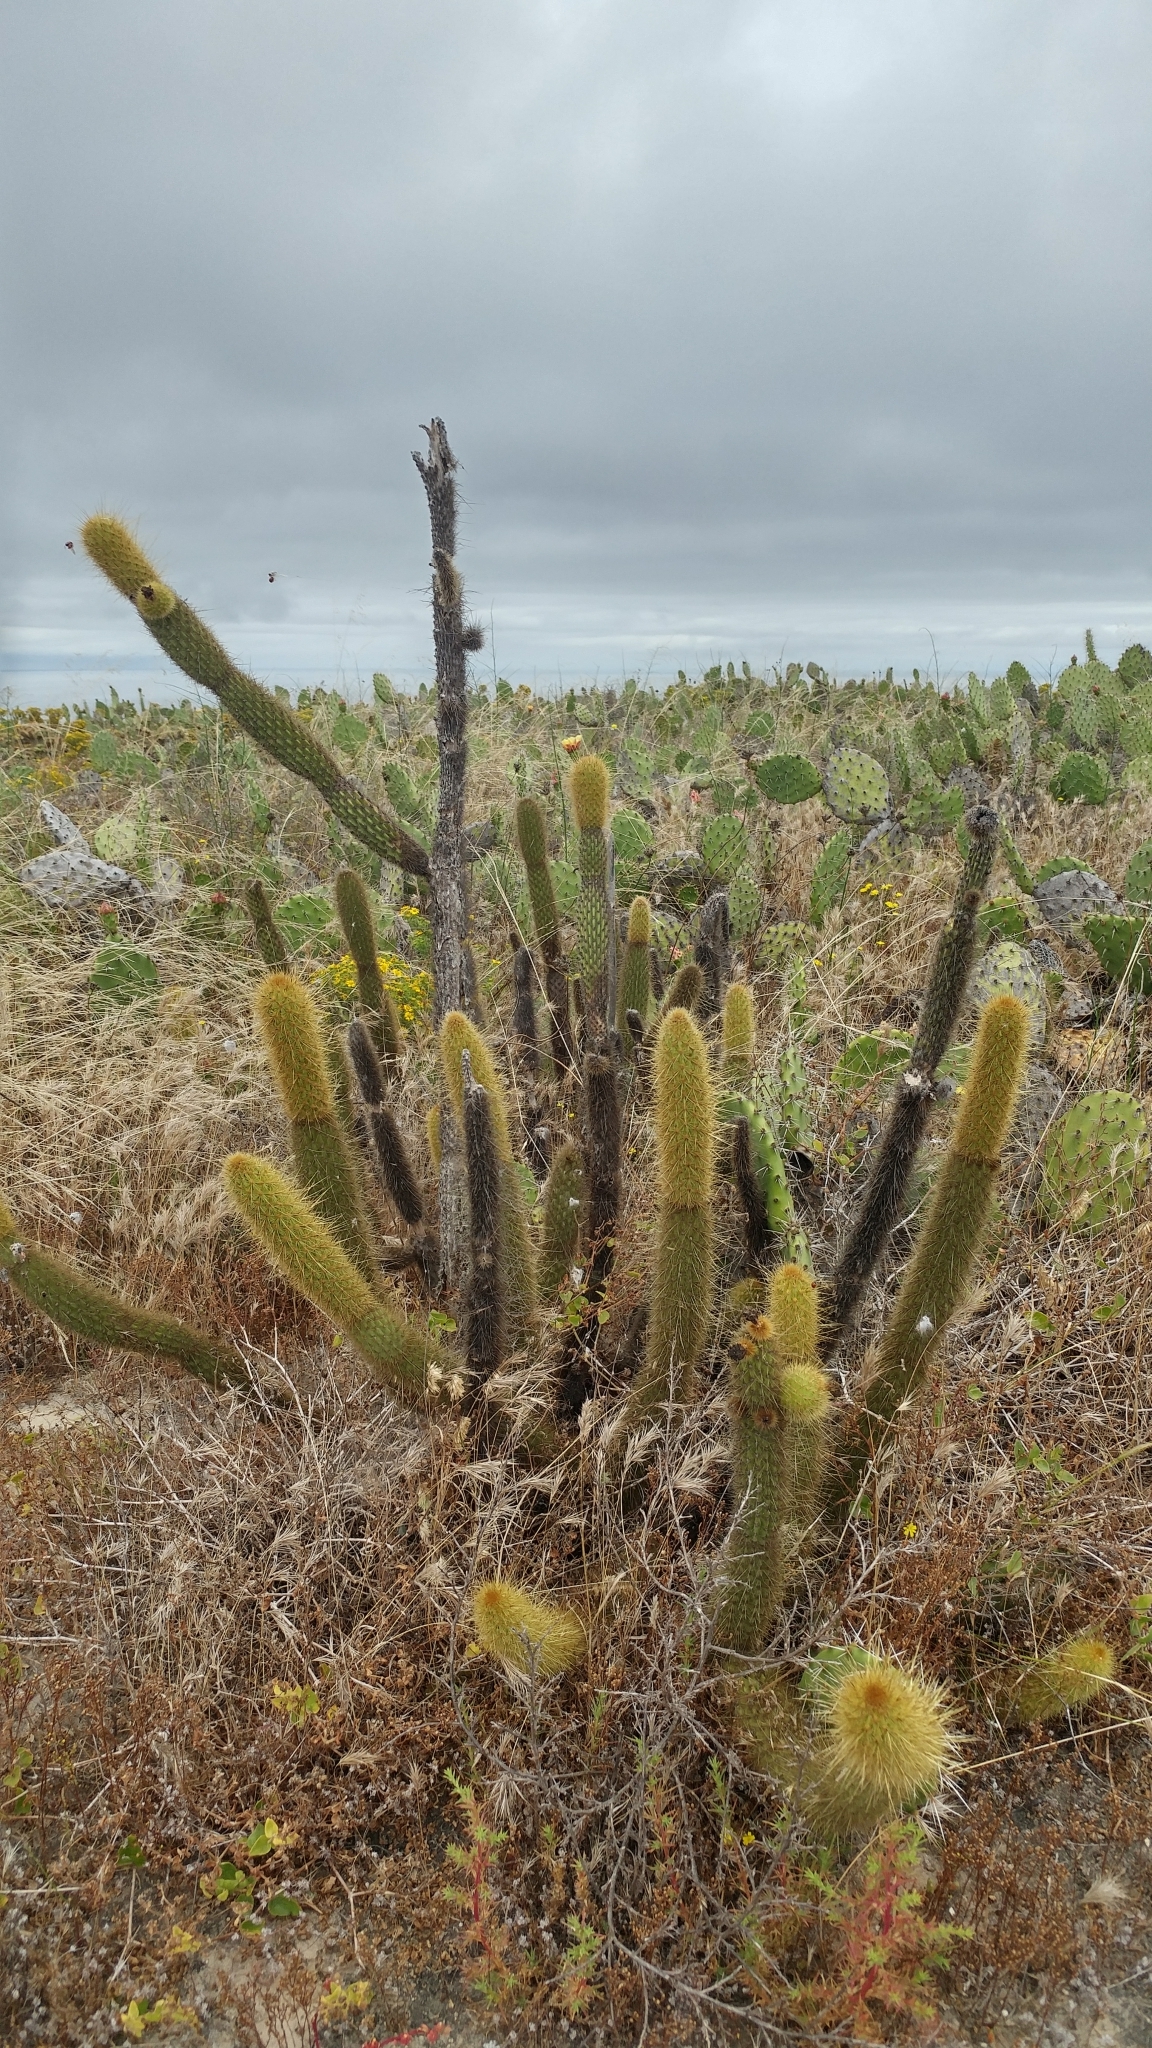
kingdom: Plantae
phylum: Tracheophyta
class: Magnoliopsida
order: Caryophyllales
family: Cactaceae
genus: Bergerocactus
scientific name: Bergerocactus emoryi
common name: Golden snakecactus
